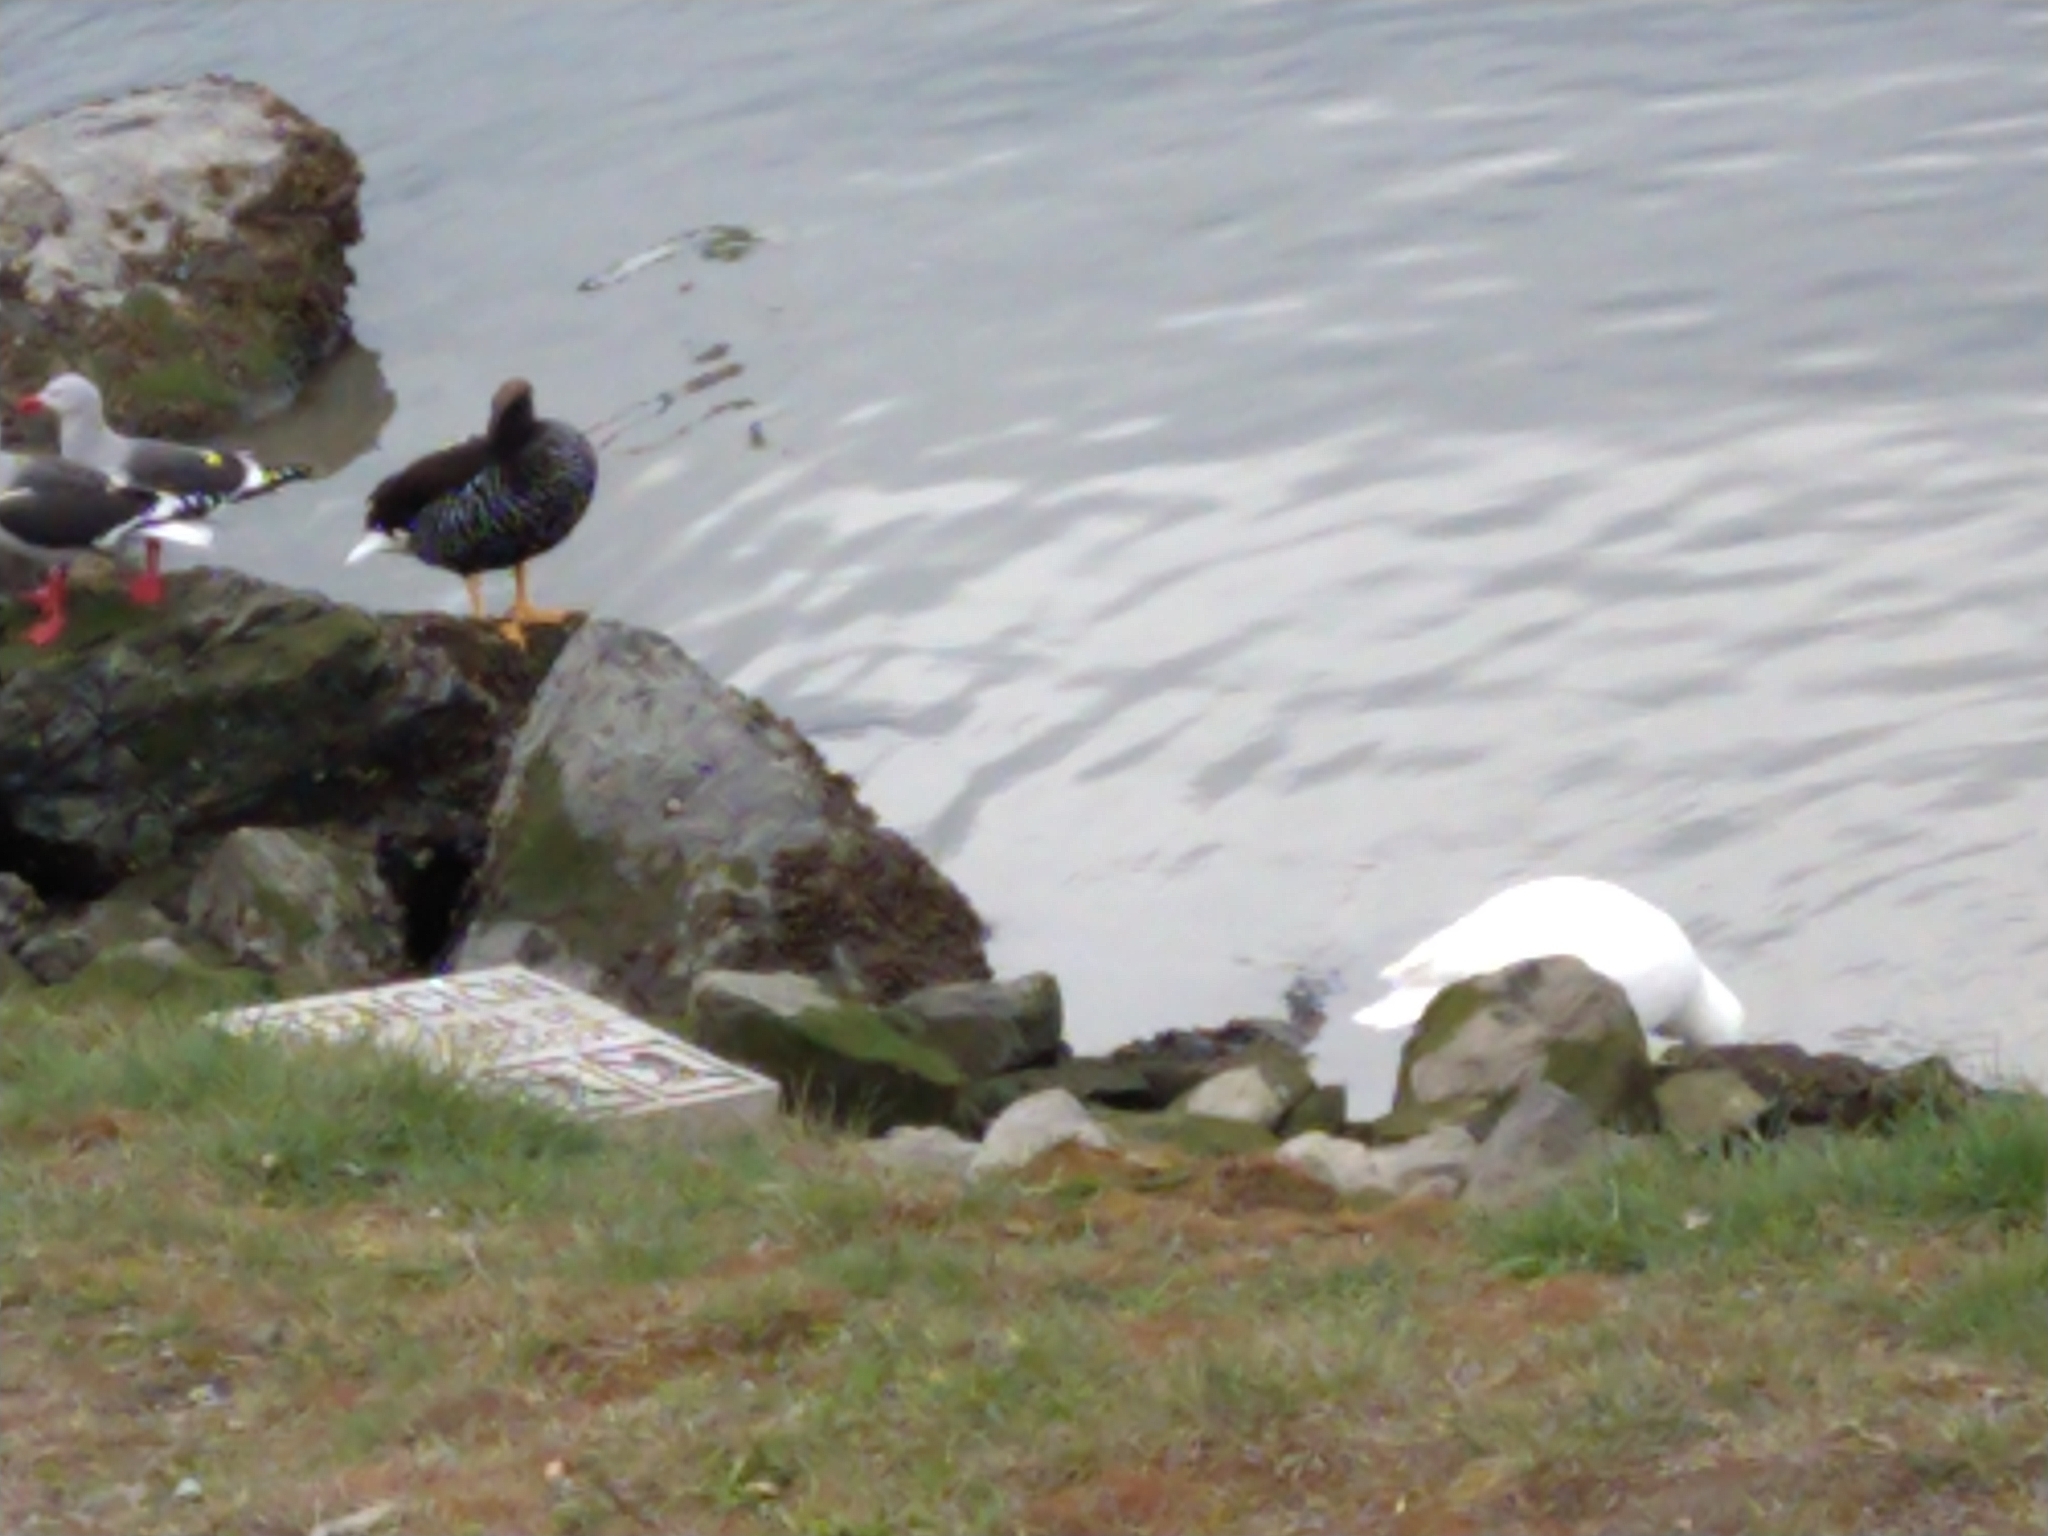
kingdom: Animalia
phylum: Chordata
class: Aves
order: Anseriformes
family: Anatidae
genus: Chloephaga
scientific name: Chloephaga hybrida
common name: Kelp goose
